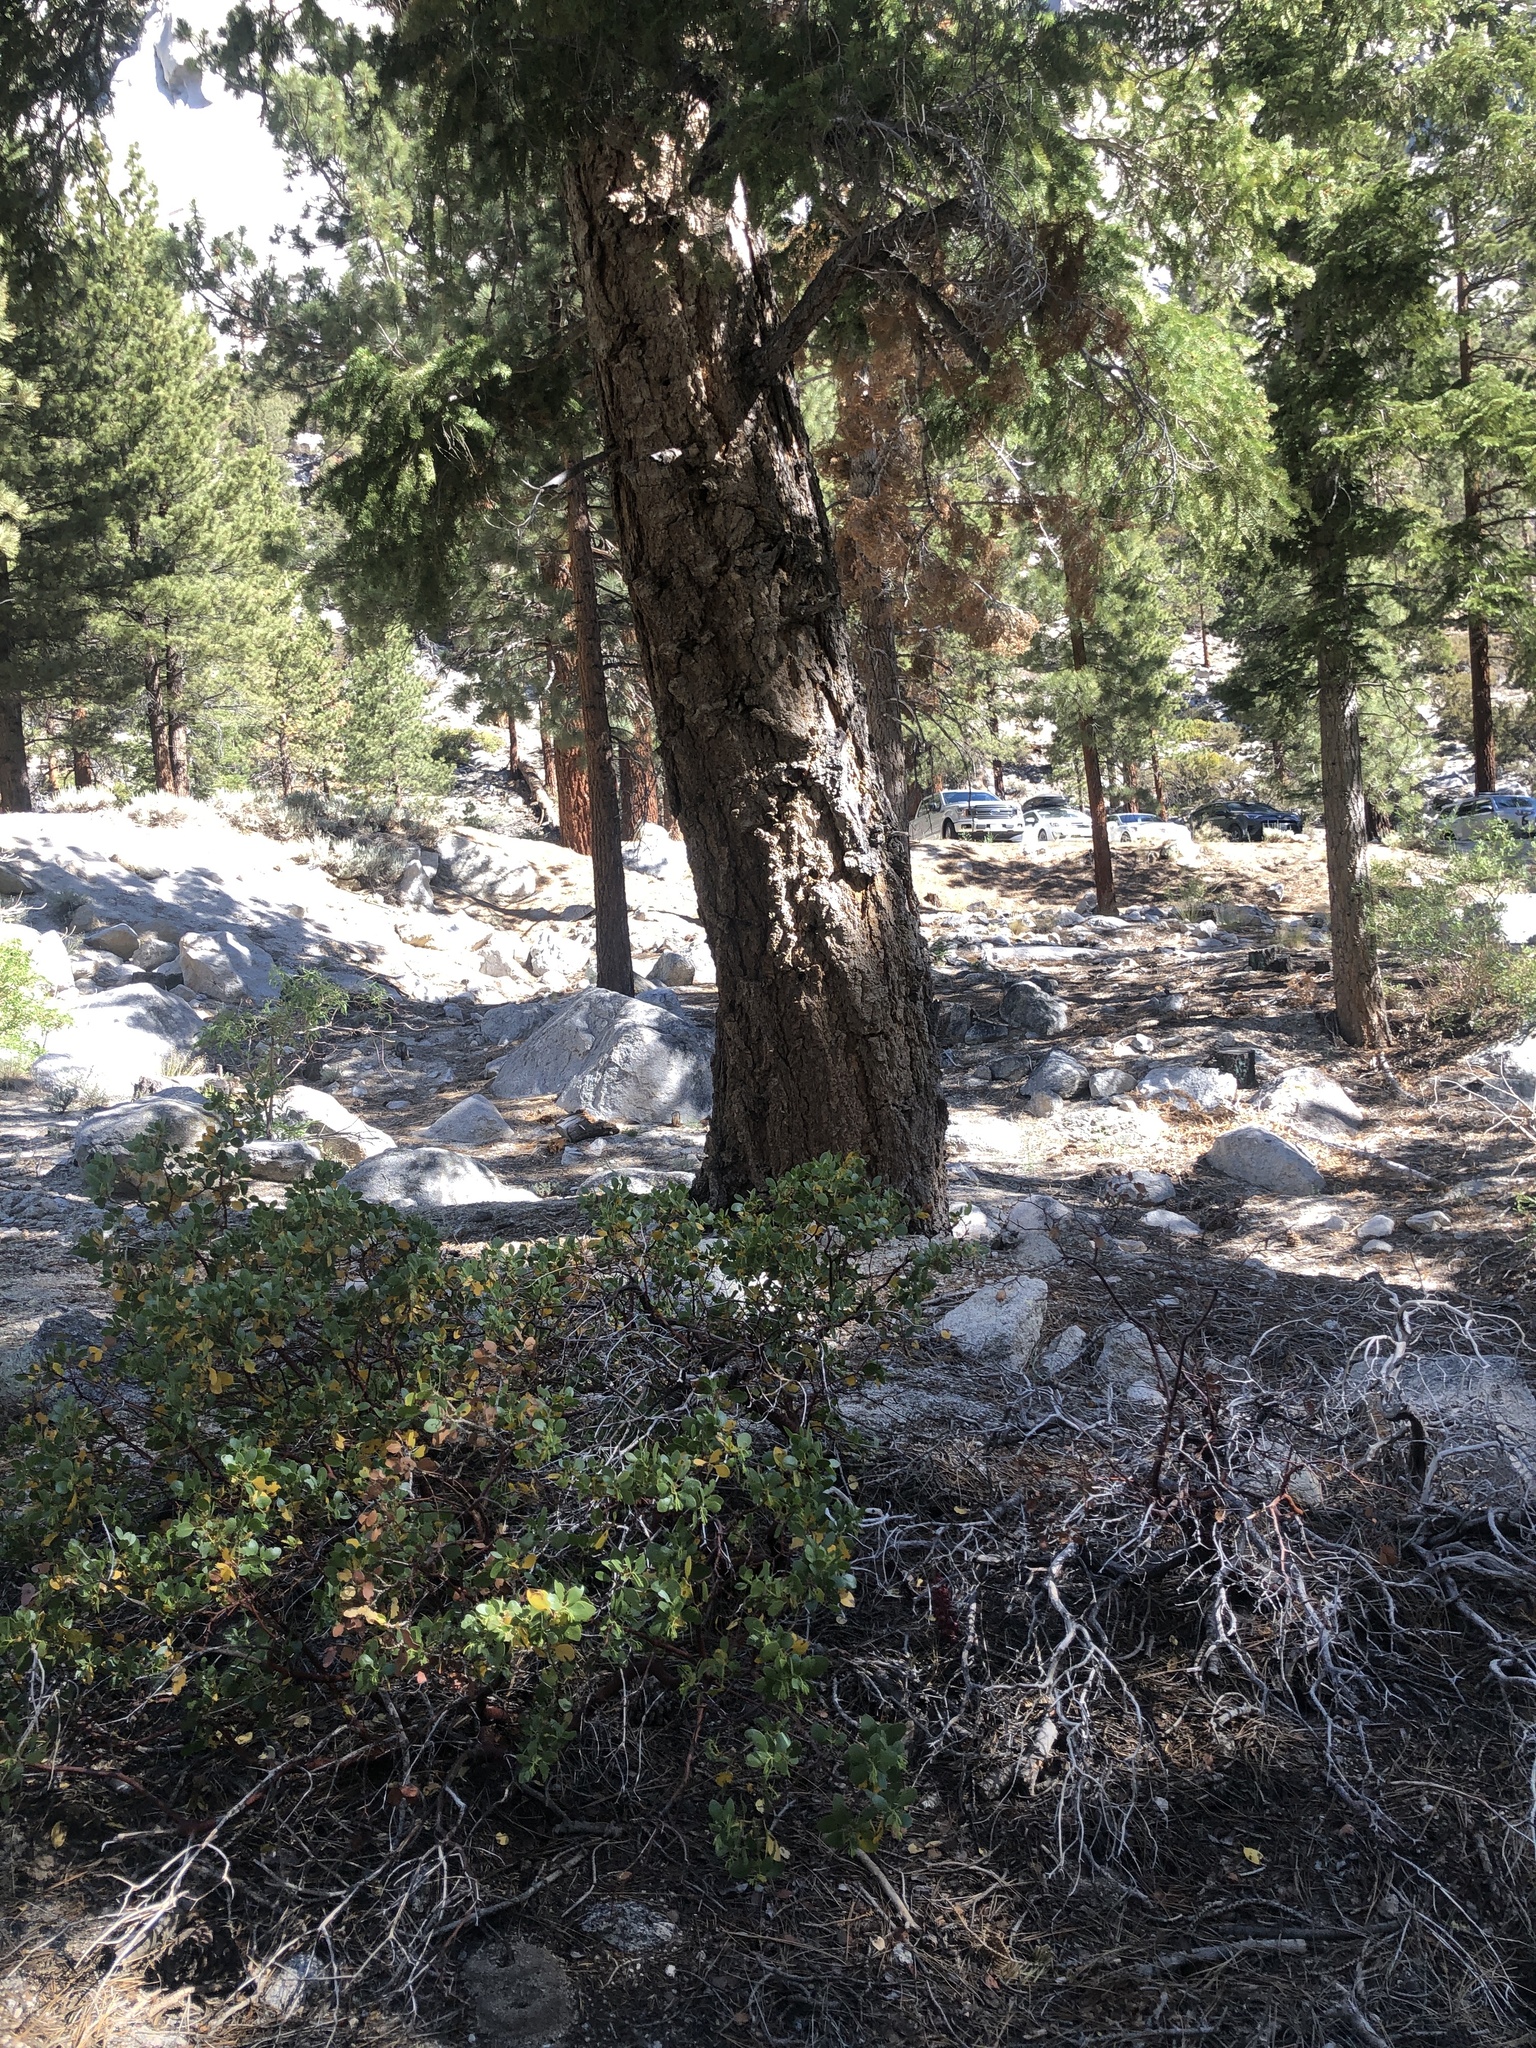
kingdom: Plantae
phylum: Tracheophyta
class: Magnoliopsida
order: Ericales
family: Ericaceae
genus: Sarcodes
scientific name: Sarcodes sanguinea
